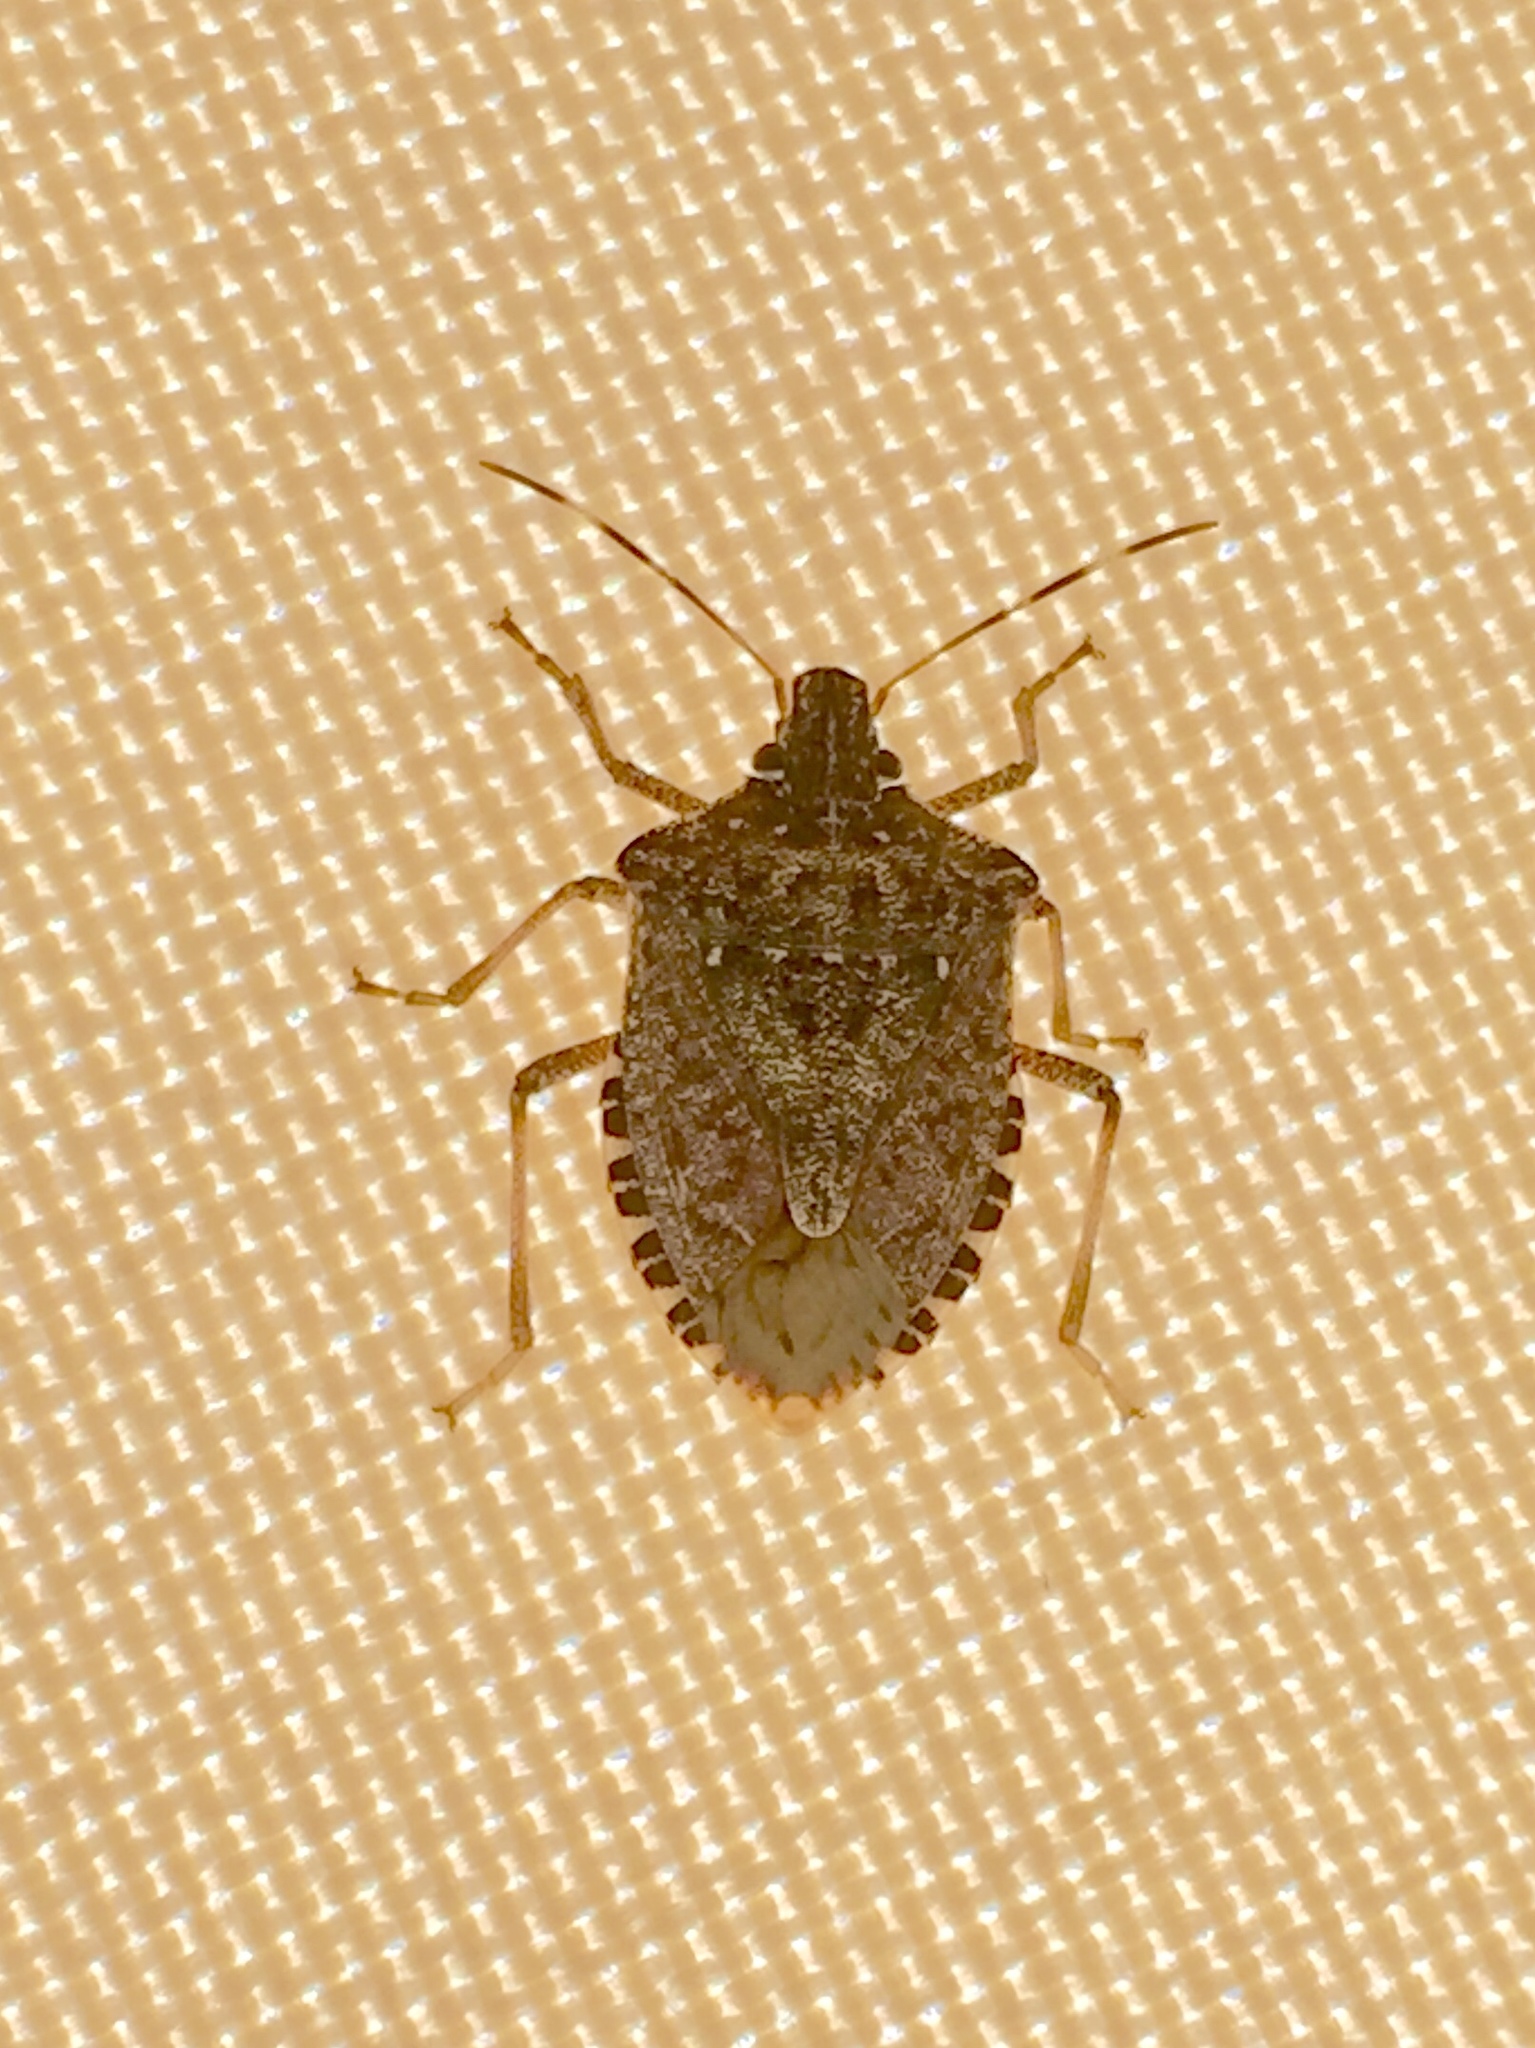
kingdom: Animalia
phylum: Arthropoda
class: Insecta
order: Hemiptera
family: Pentatomidae
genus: Halyomorpha
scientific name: Halyomorpha halys
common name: Brown marmorated stink bug
